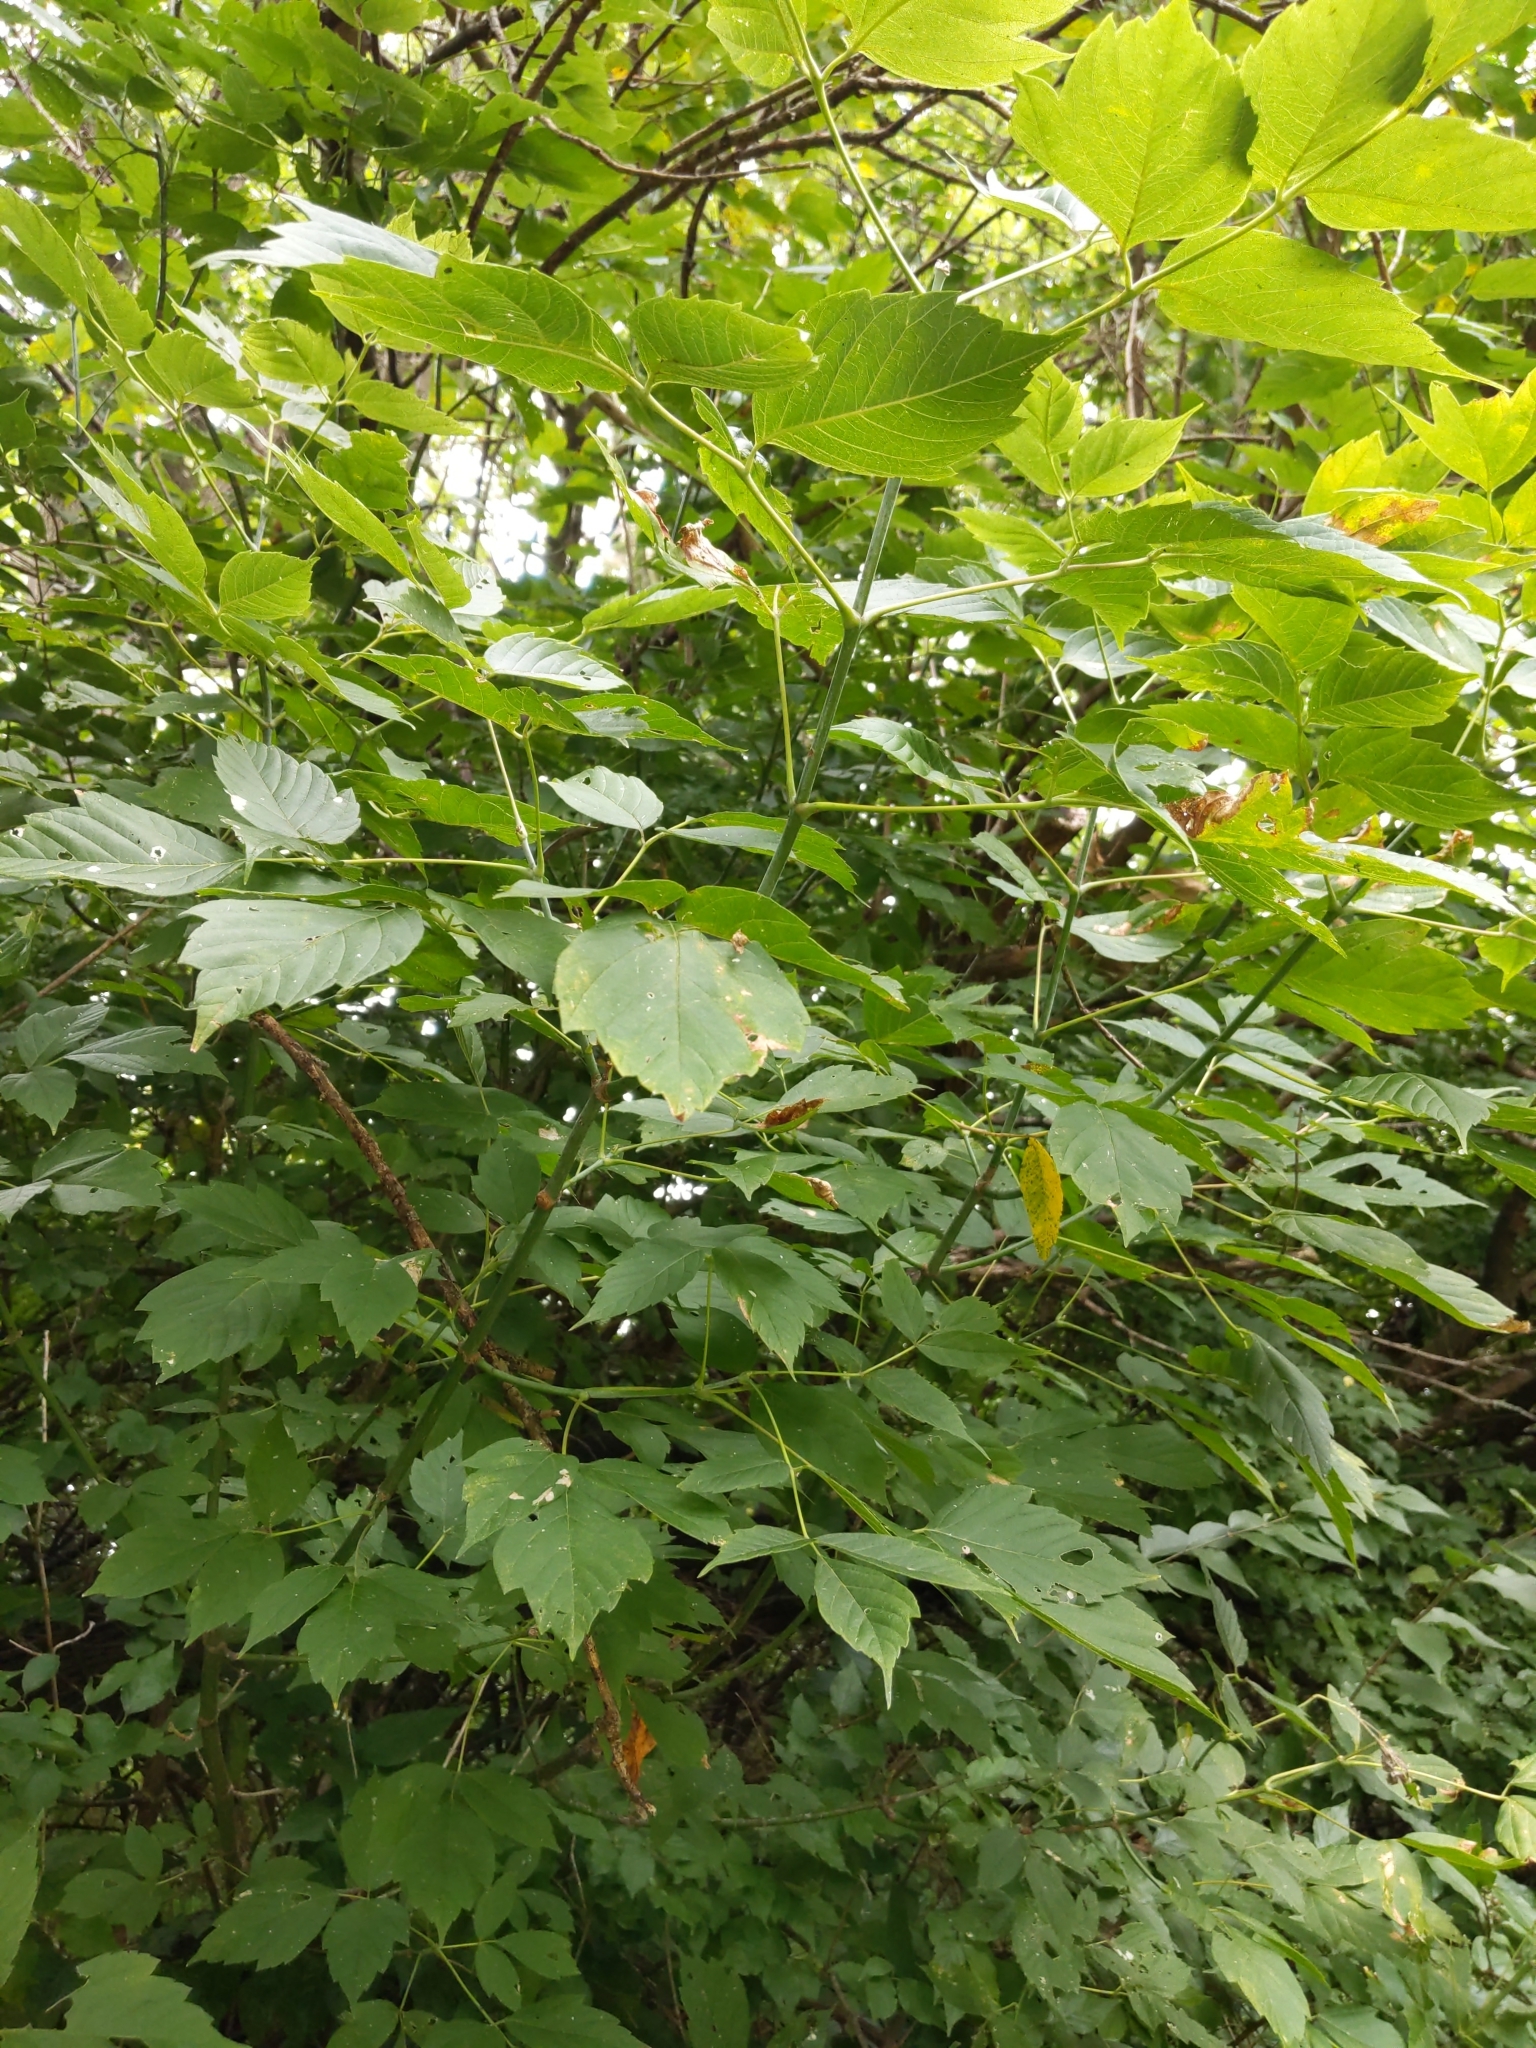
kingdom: Plantae
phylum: Tracheophyta
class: Magnoliopsida
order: Sapindales
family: Sapindaceae
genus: Acer
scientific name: Acer negundo
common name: Ashleaf maple
